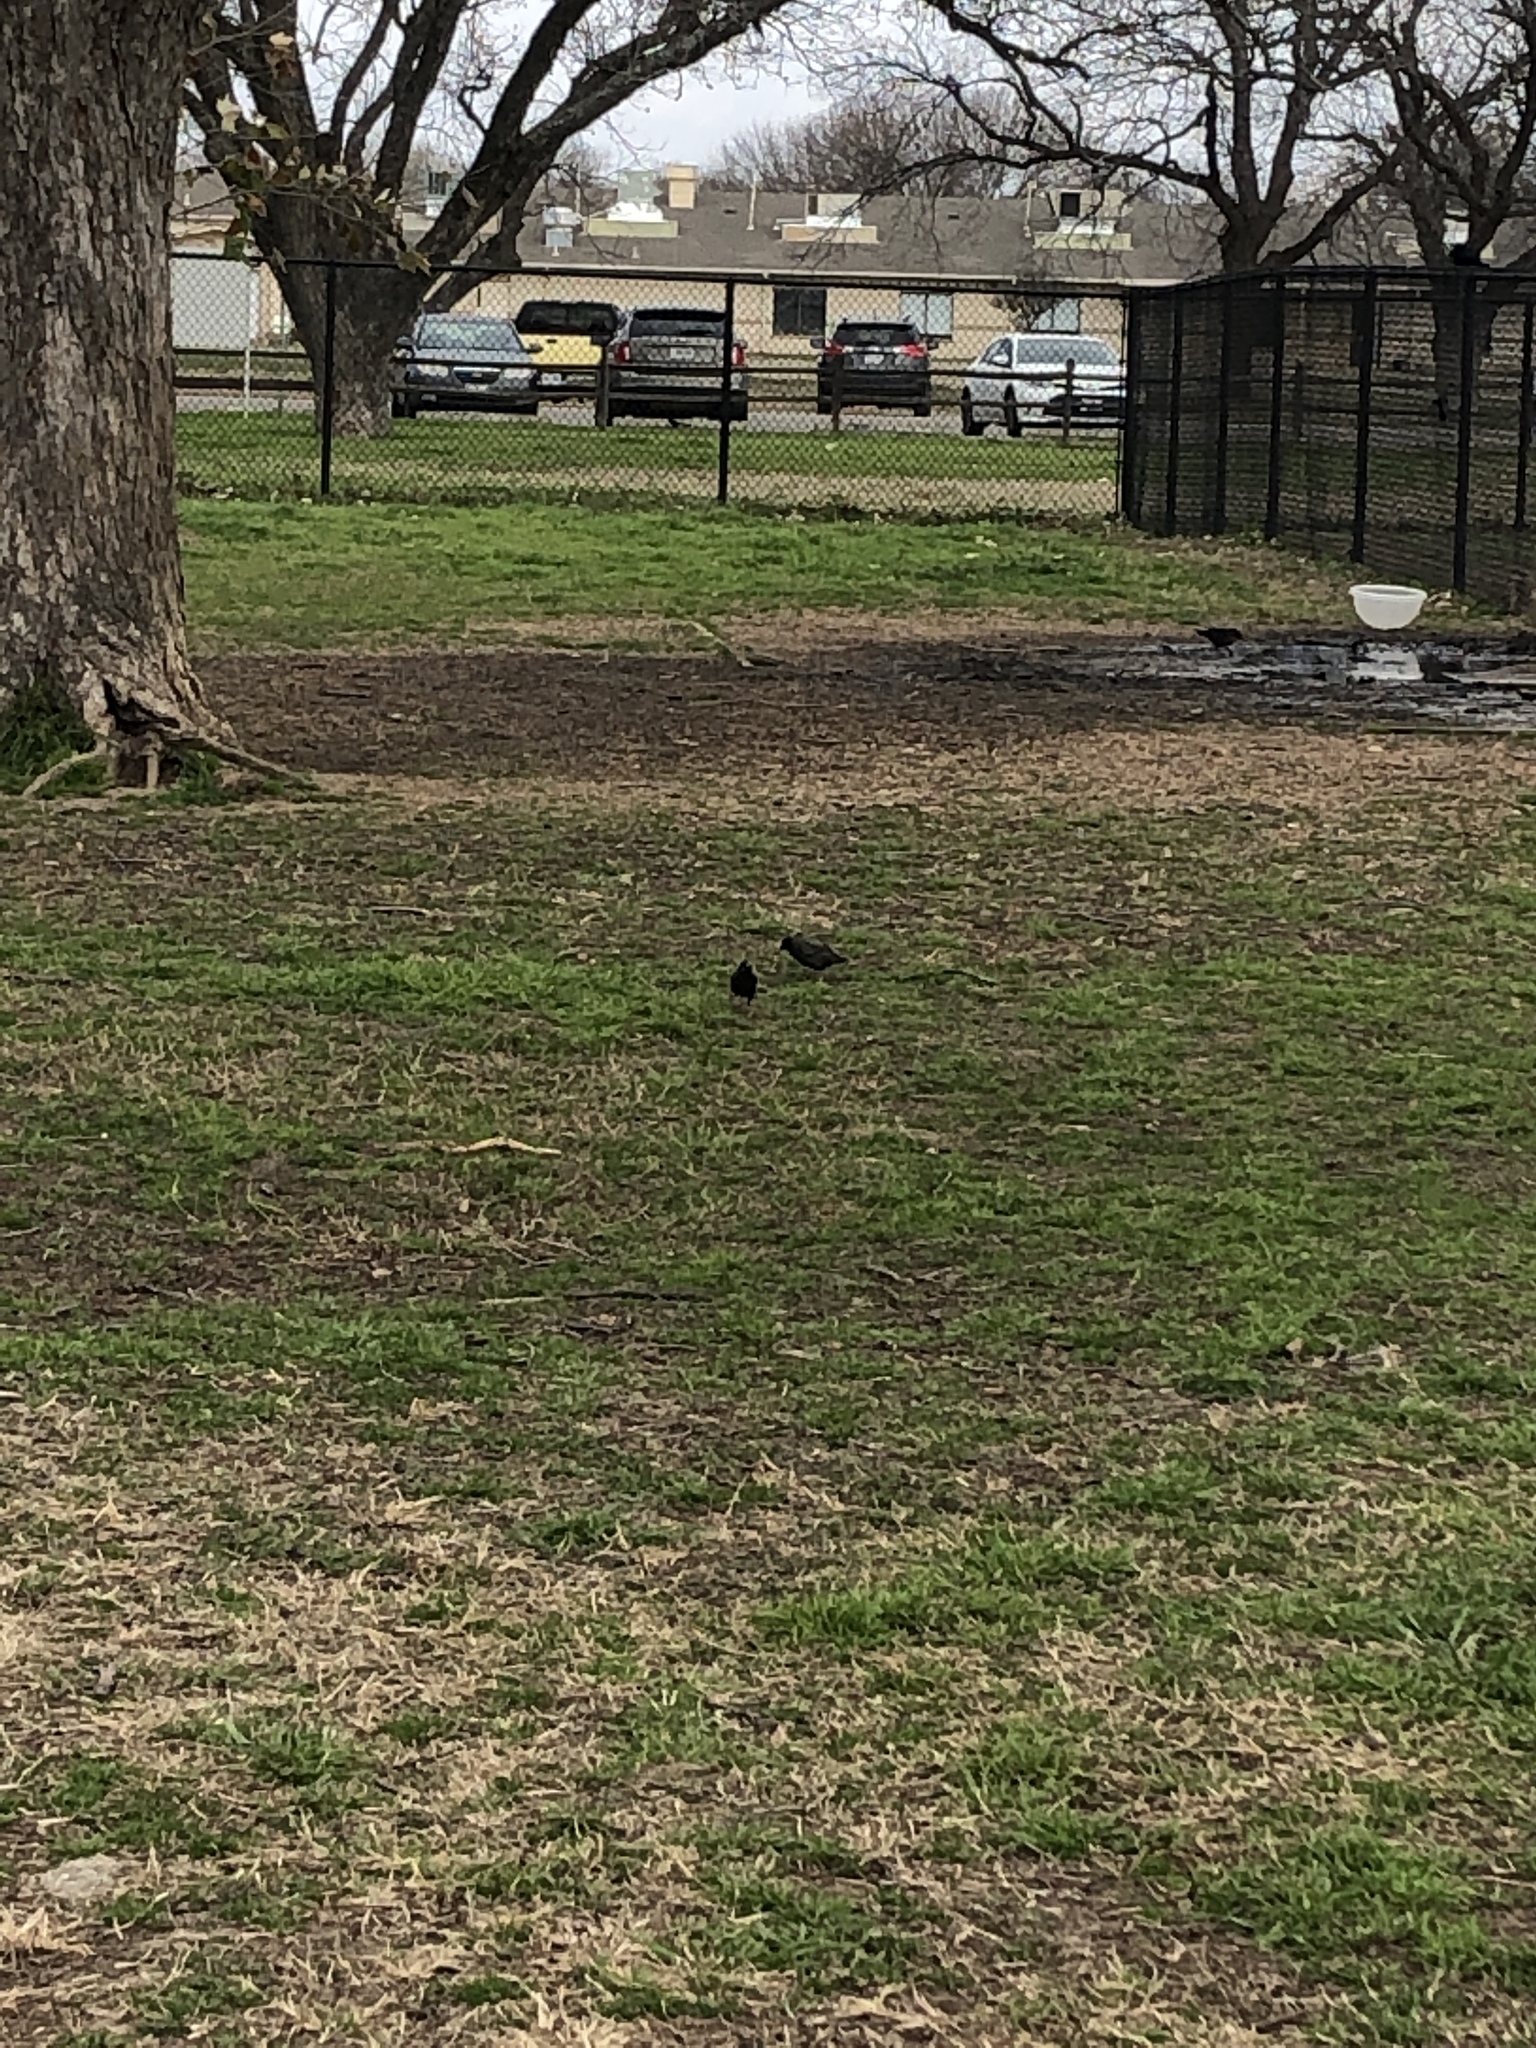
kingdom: Animalia
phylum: Chordata
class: Aves
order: Passeriformes
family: Sturnidae
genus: Sturnus
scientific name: Sturnus vulgaris
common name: Common starling
